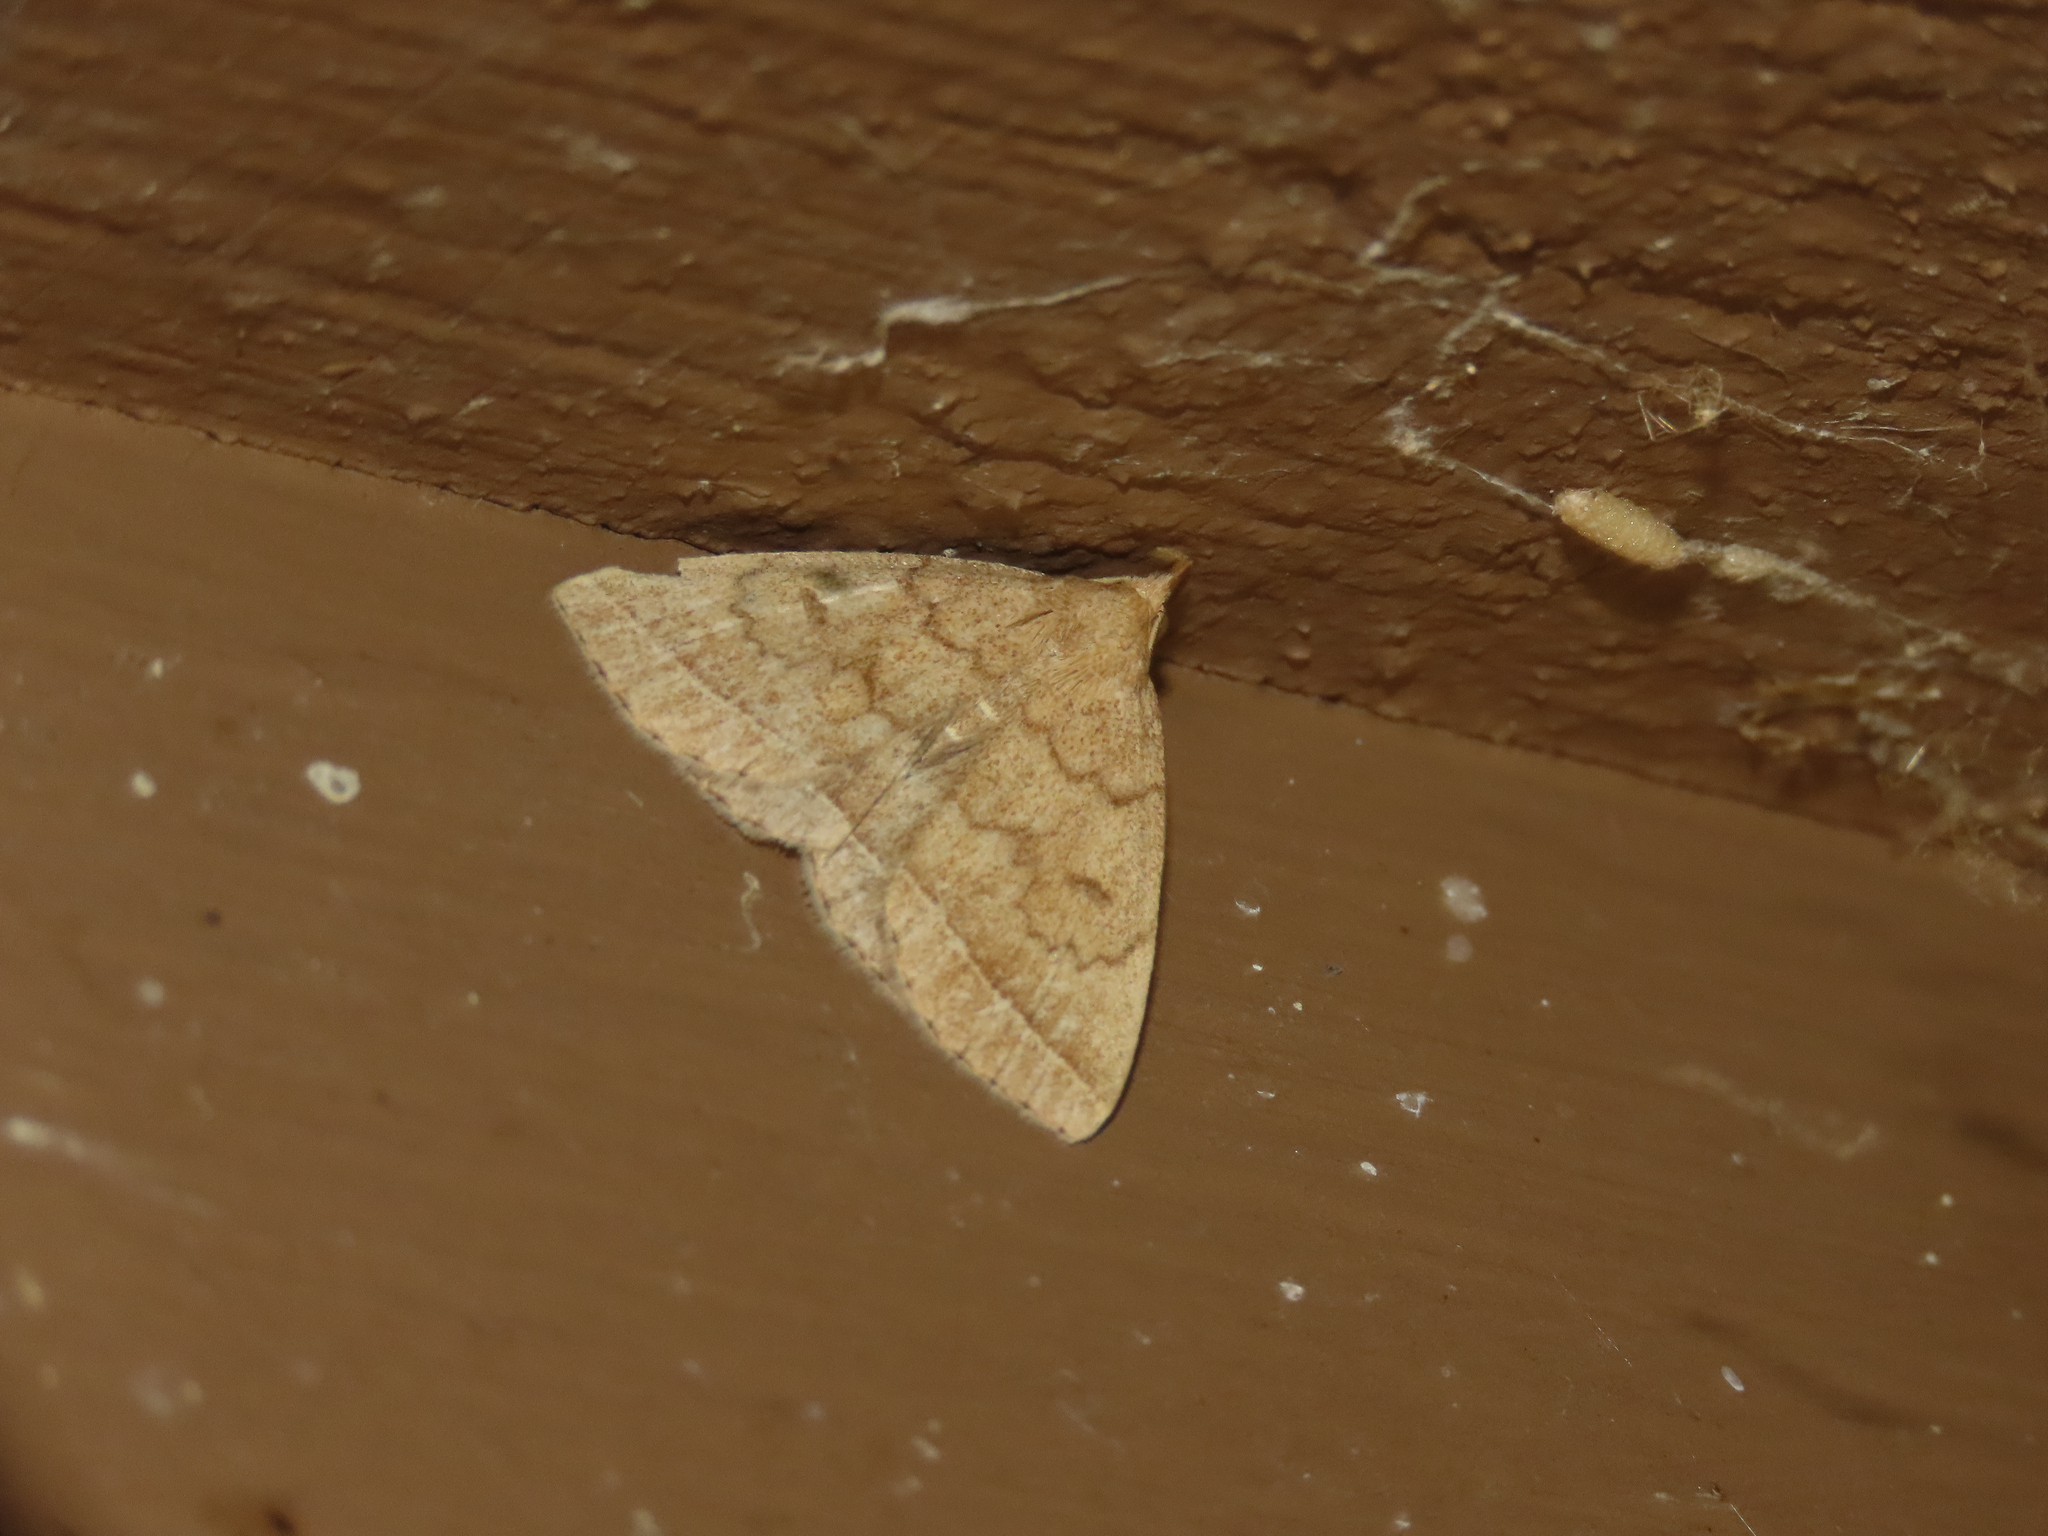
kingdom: Animalia
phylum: Arthropoda
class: Insecta
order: Lepidoptera
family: Erebidae
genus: Zanclognatha
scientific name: Zanclognatha jacchusalis
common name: Yellowish zanclognatha
